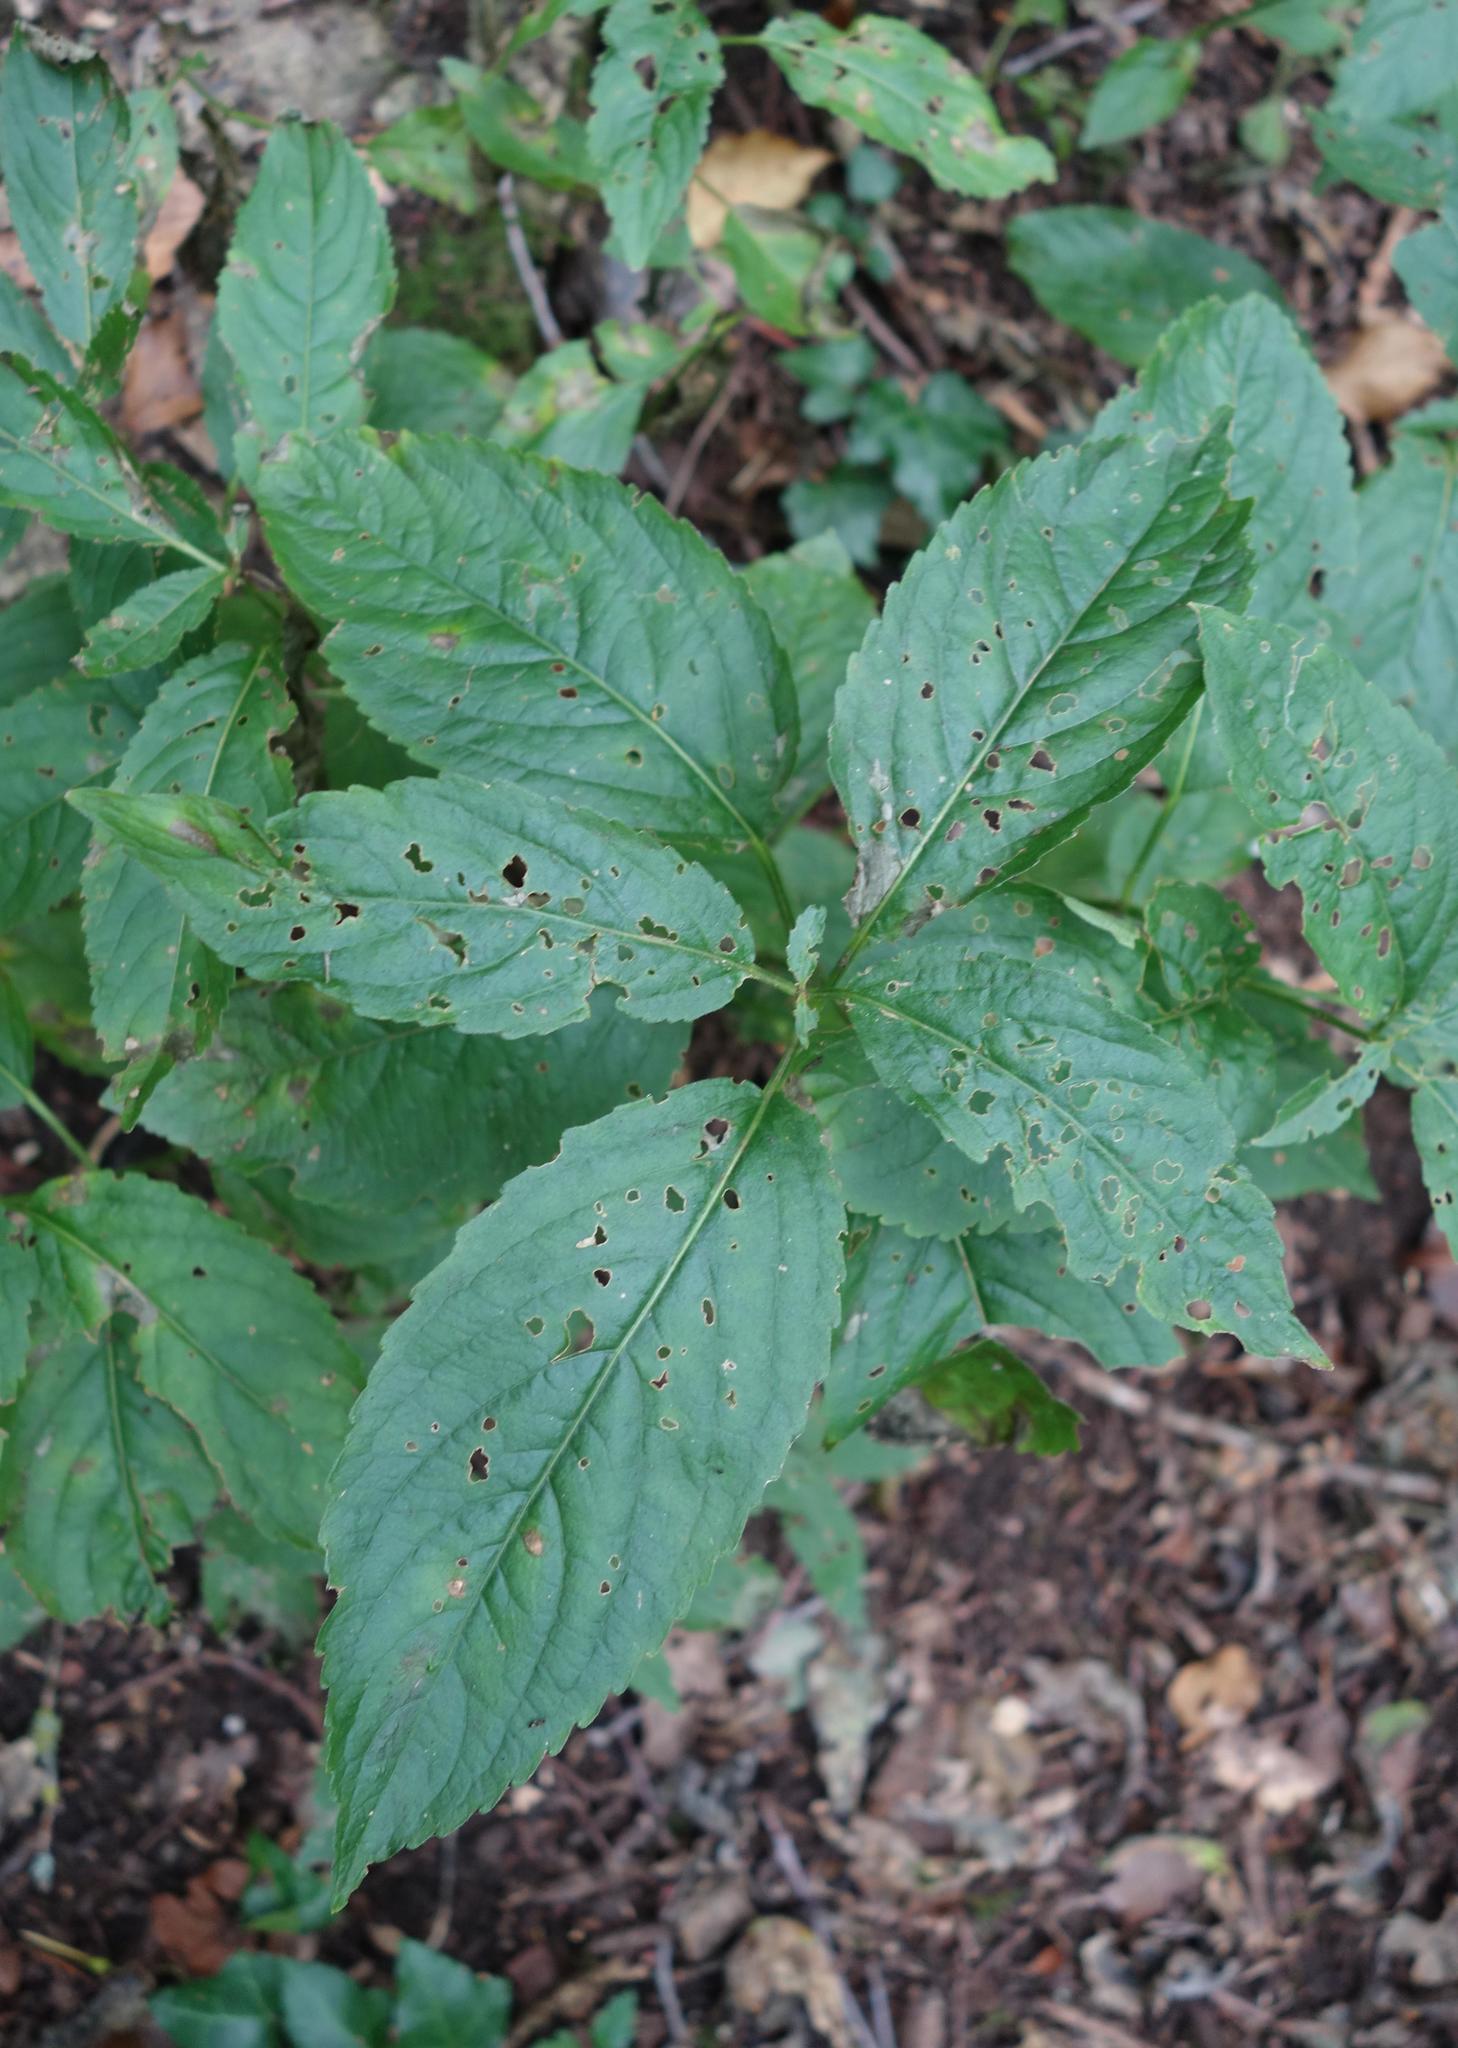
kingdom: Plantae
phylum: Tracheophyta
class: Magnoliopsida
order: Malpighiales
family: Euphorbiaceae
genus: Mercurialis
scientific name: Mercurialis perennis
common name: Dog mercury
